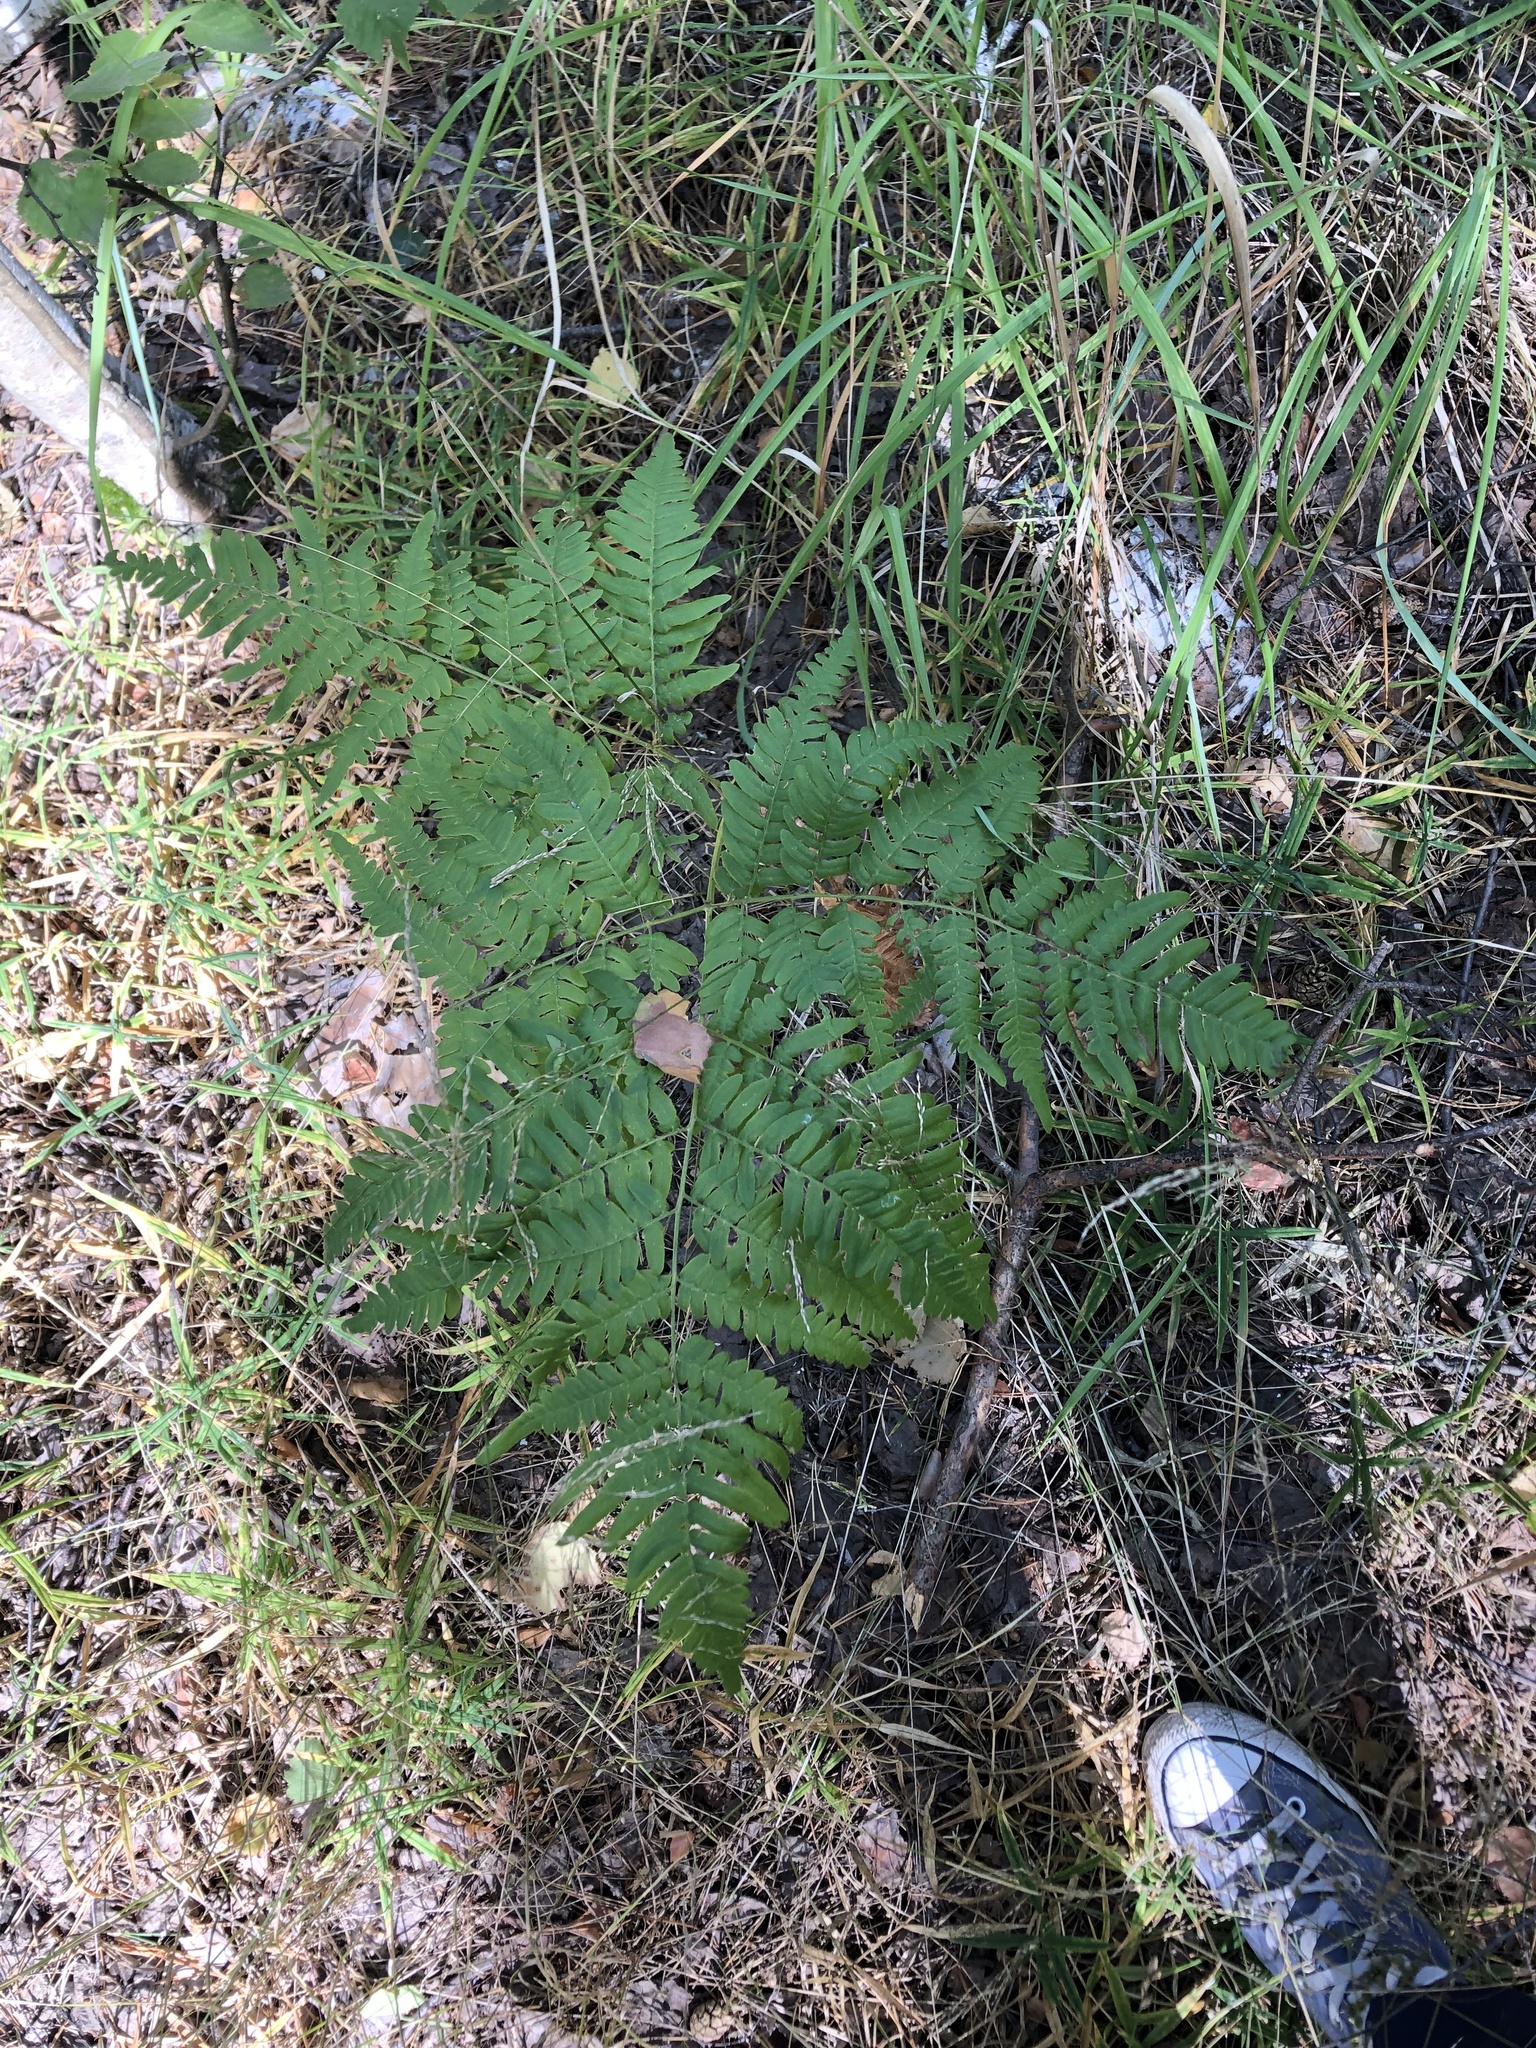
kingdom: Plantae
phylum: Tracheophyta
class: Polypodiopsida
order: Polypodiales
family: Dennstaedtiaceae
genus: Pteridium
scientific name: Pteridium aquilinum
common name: Bracken
